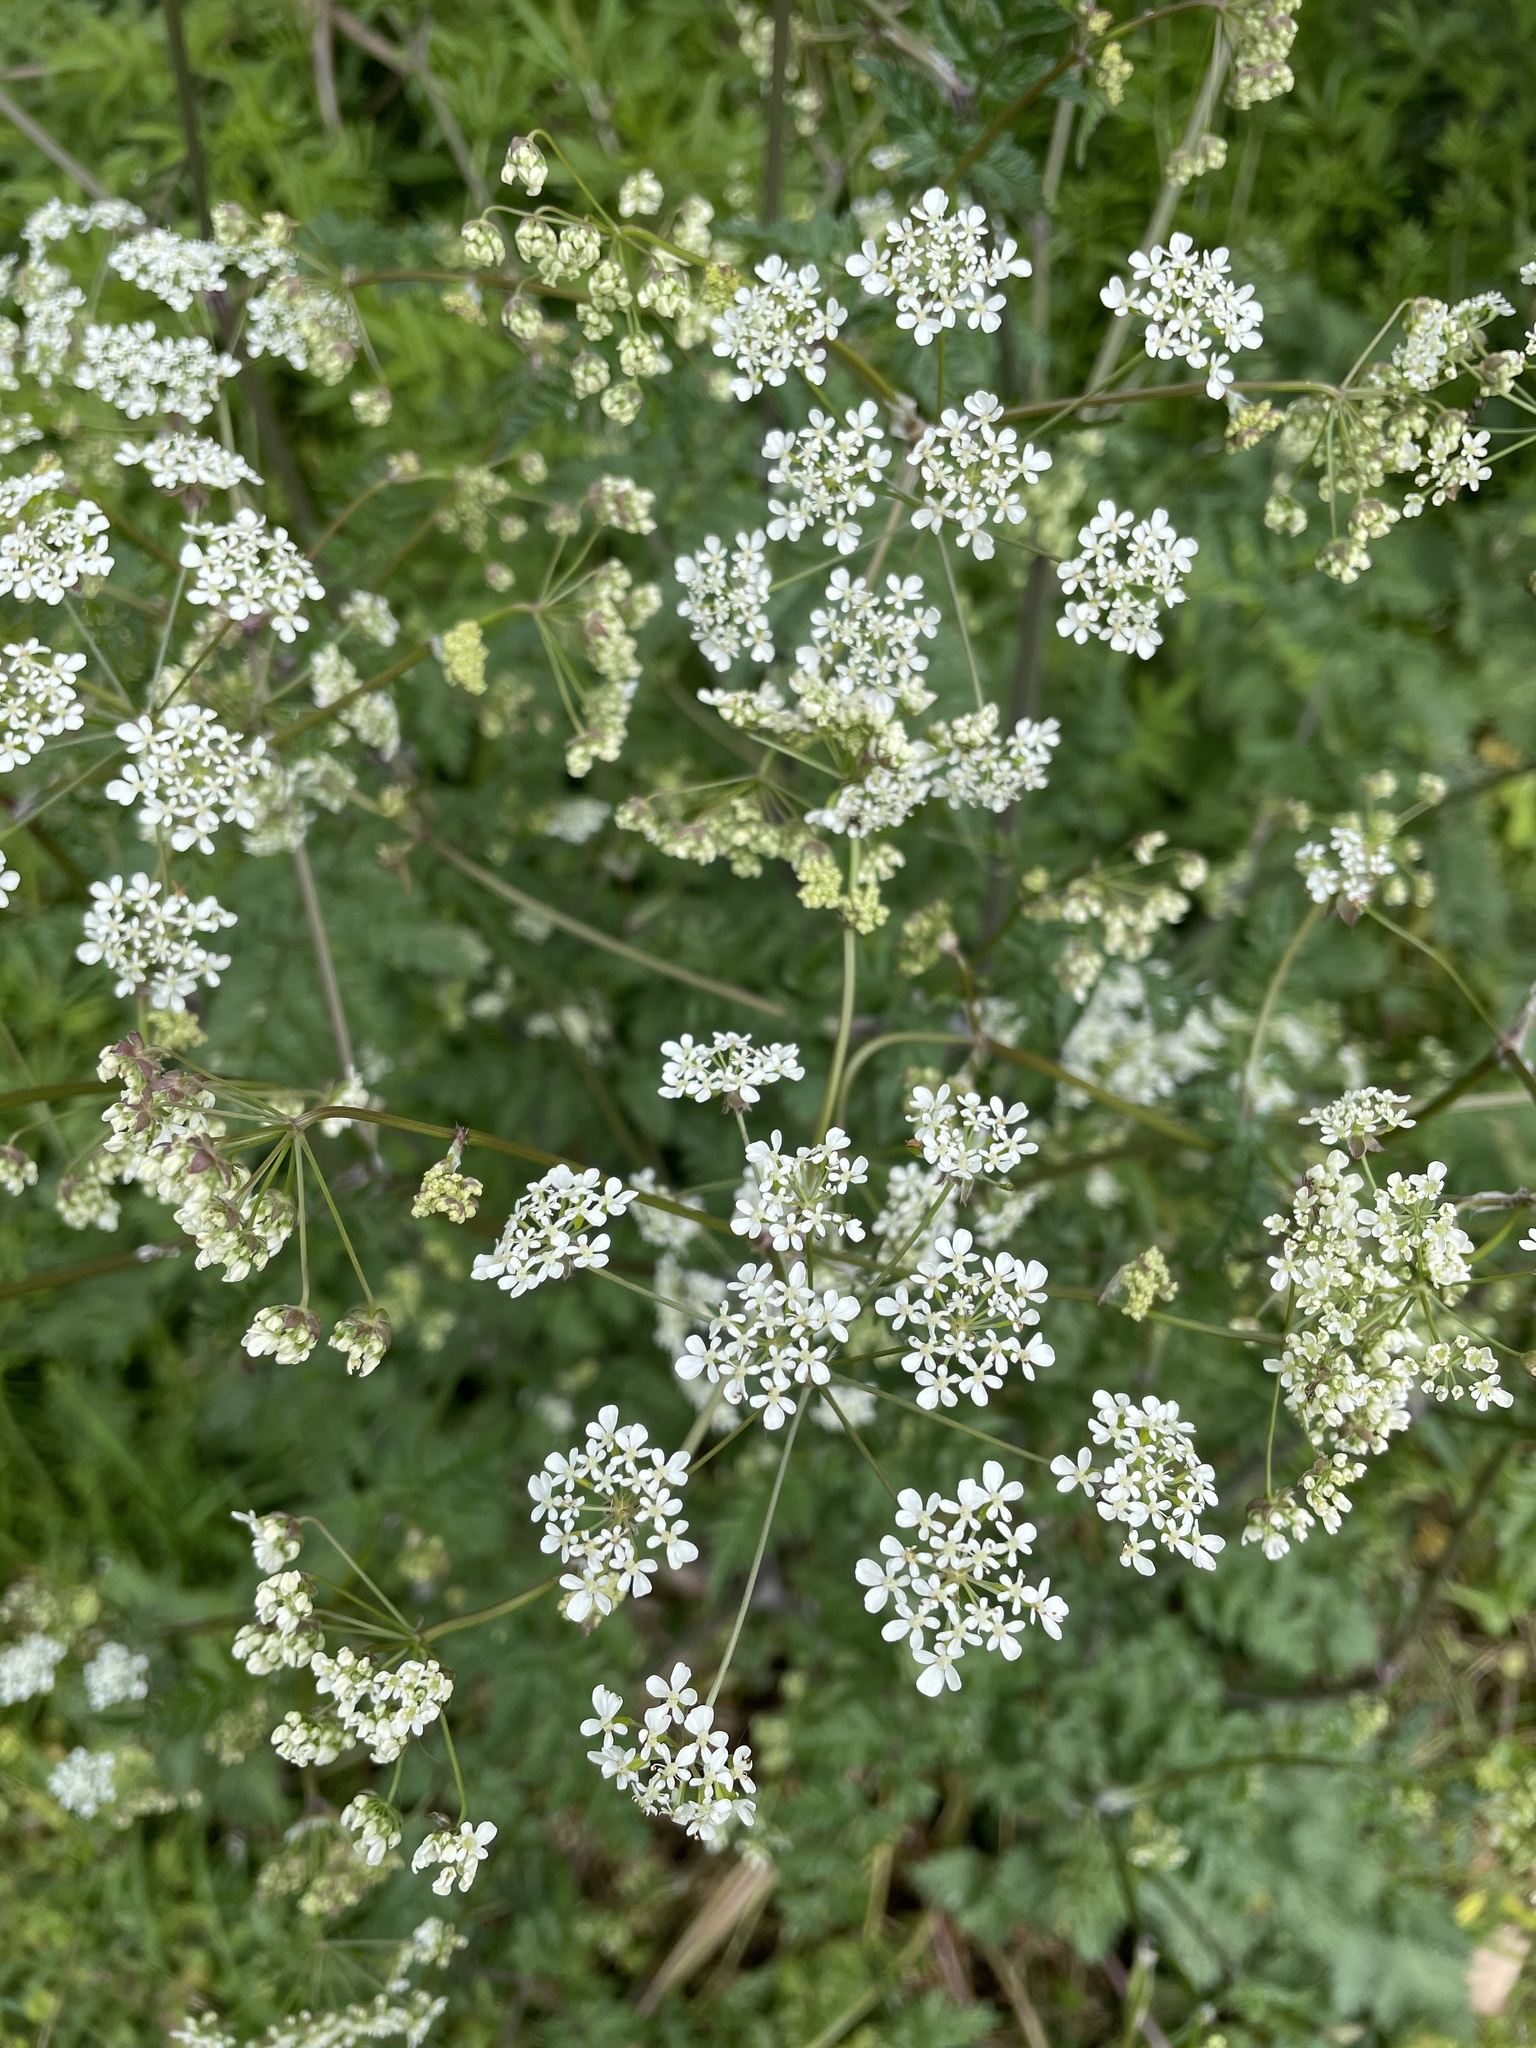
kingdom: Plantae
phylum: Tracheophyta
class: Magnoliopsida
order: Apiales
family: Apiaceae
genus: Anthriscus
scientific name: Anthriscus sylvestris
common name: Cow parsley
